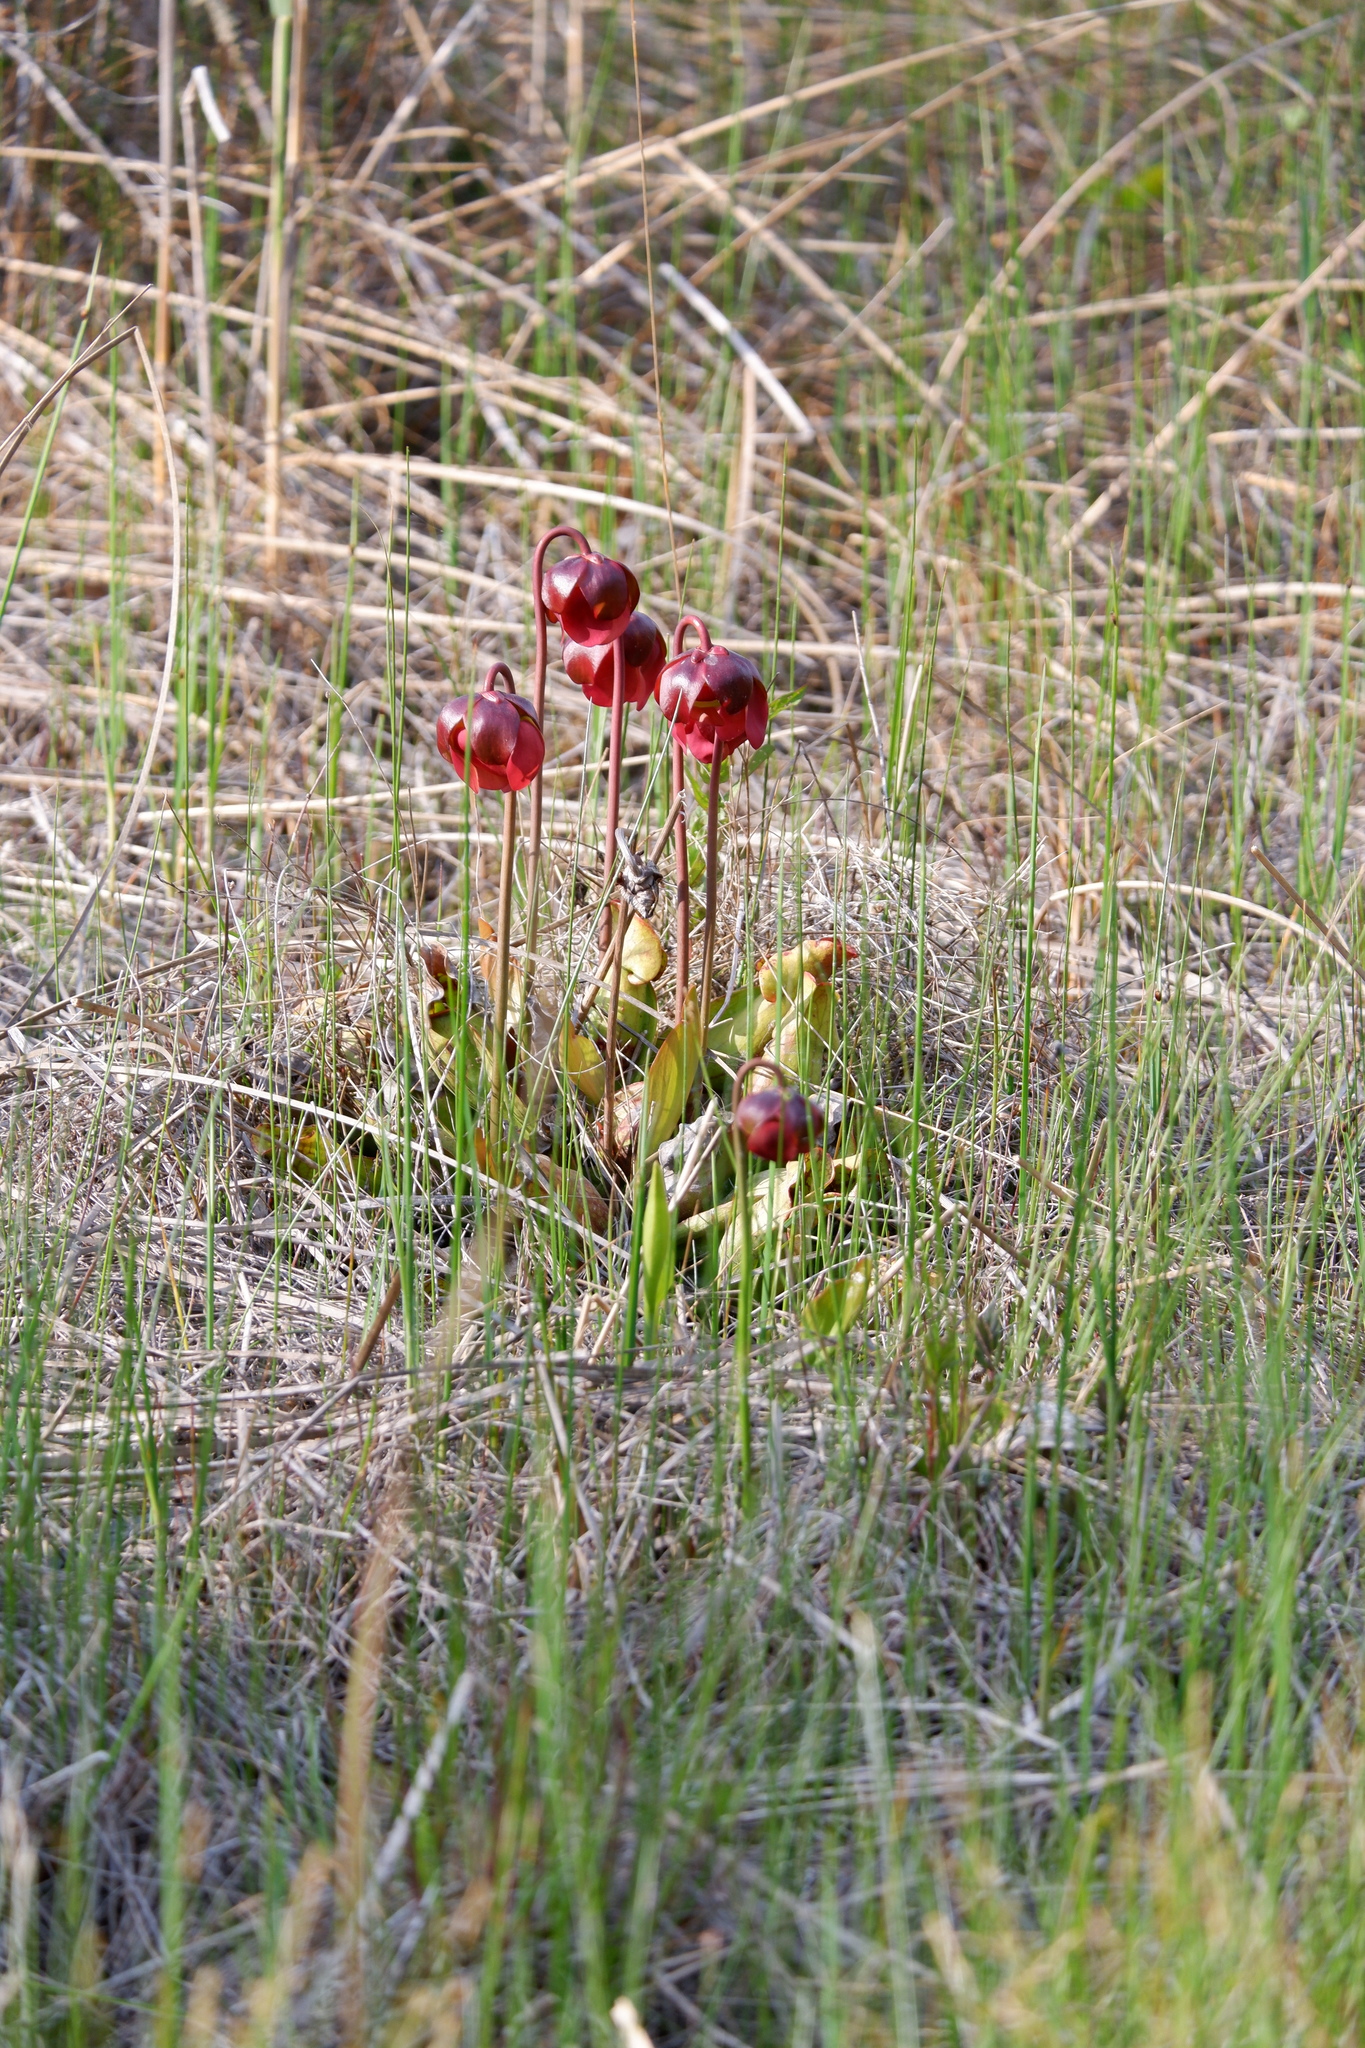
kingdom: Plantae
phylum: Tracheophyta
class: Magnoliopsida
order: Ericales
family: Sarraceniaceae
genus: Sarracenia
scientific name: Sarracenia purpurea
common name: Pitcherplant
